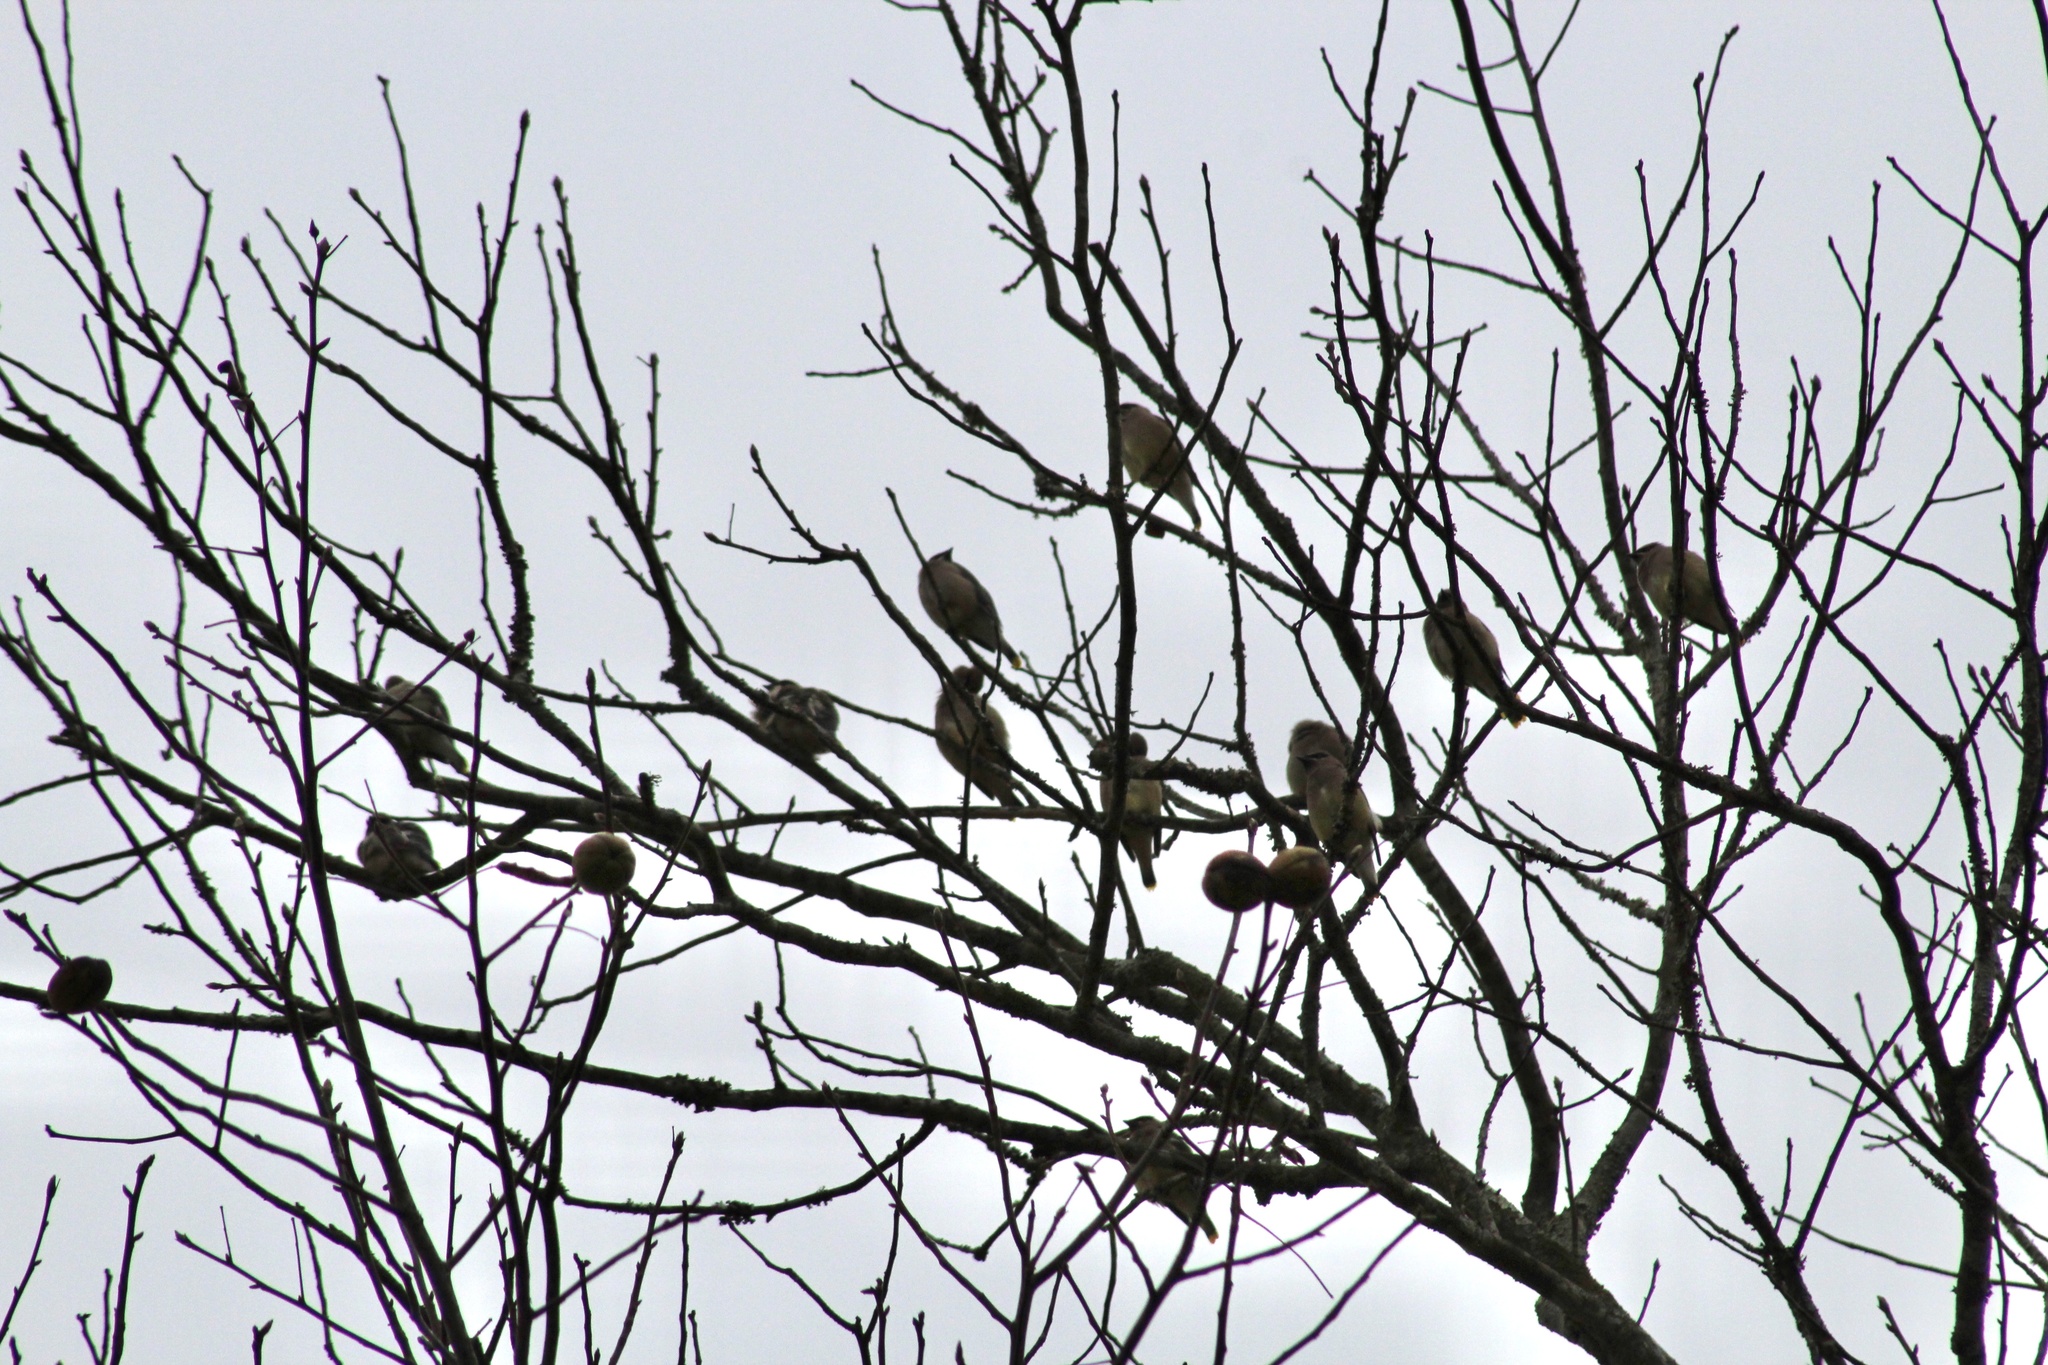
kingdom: Animalia
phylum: Chordata
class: Aves
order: Passeriformes
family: Bombycillidae
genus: Bombycilla
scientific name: Bombycilla cedrorum
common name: Cedar waxwing
